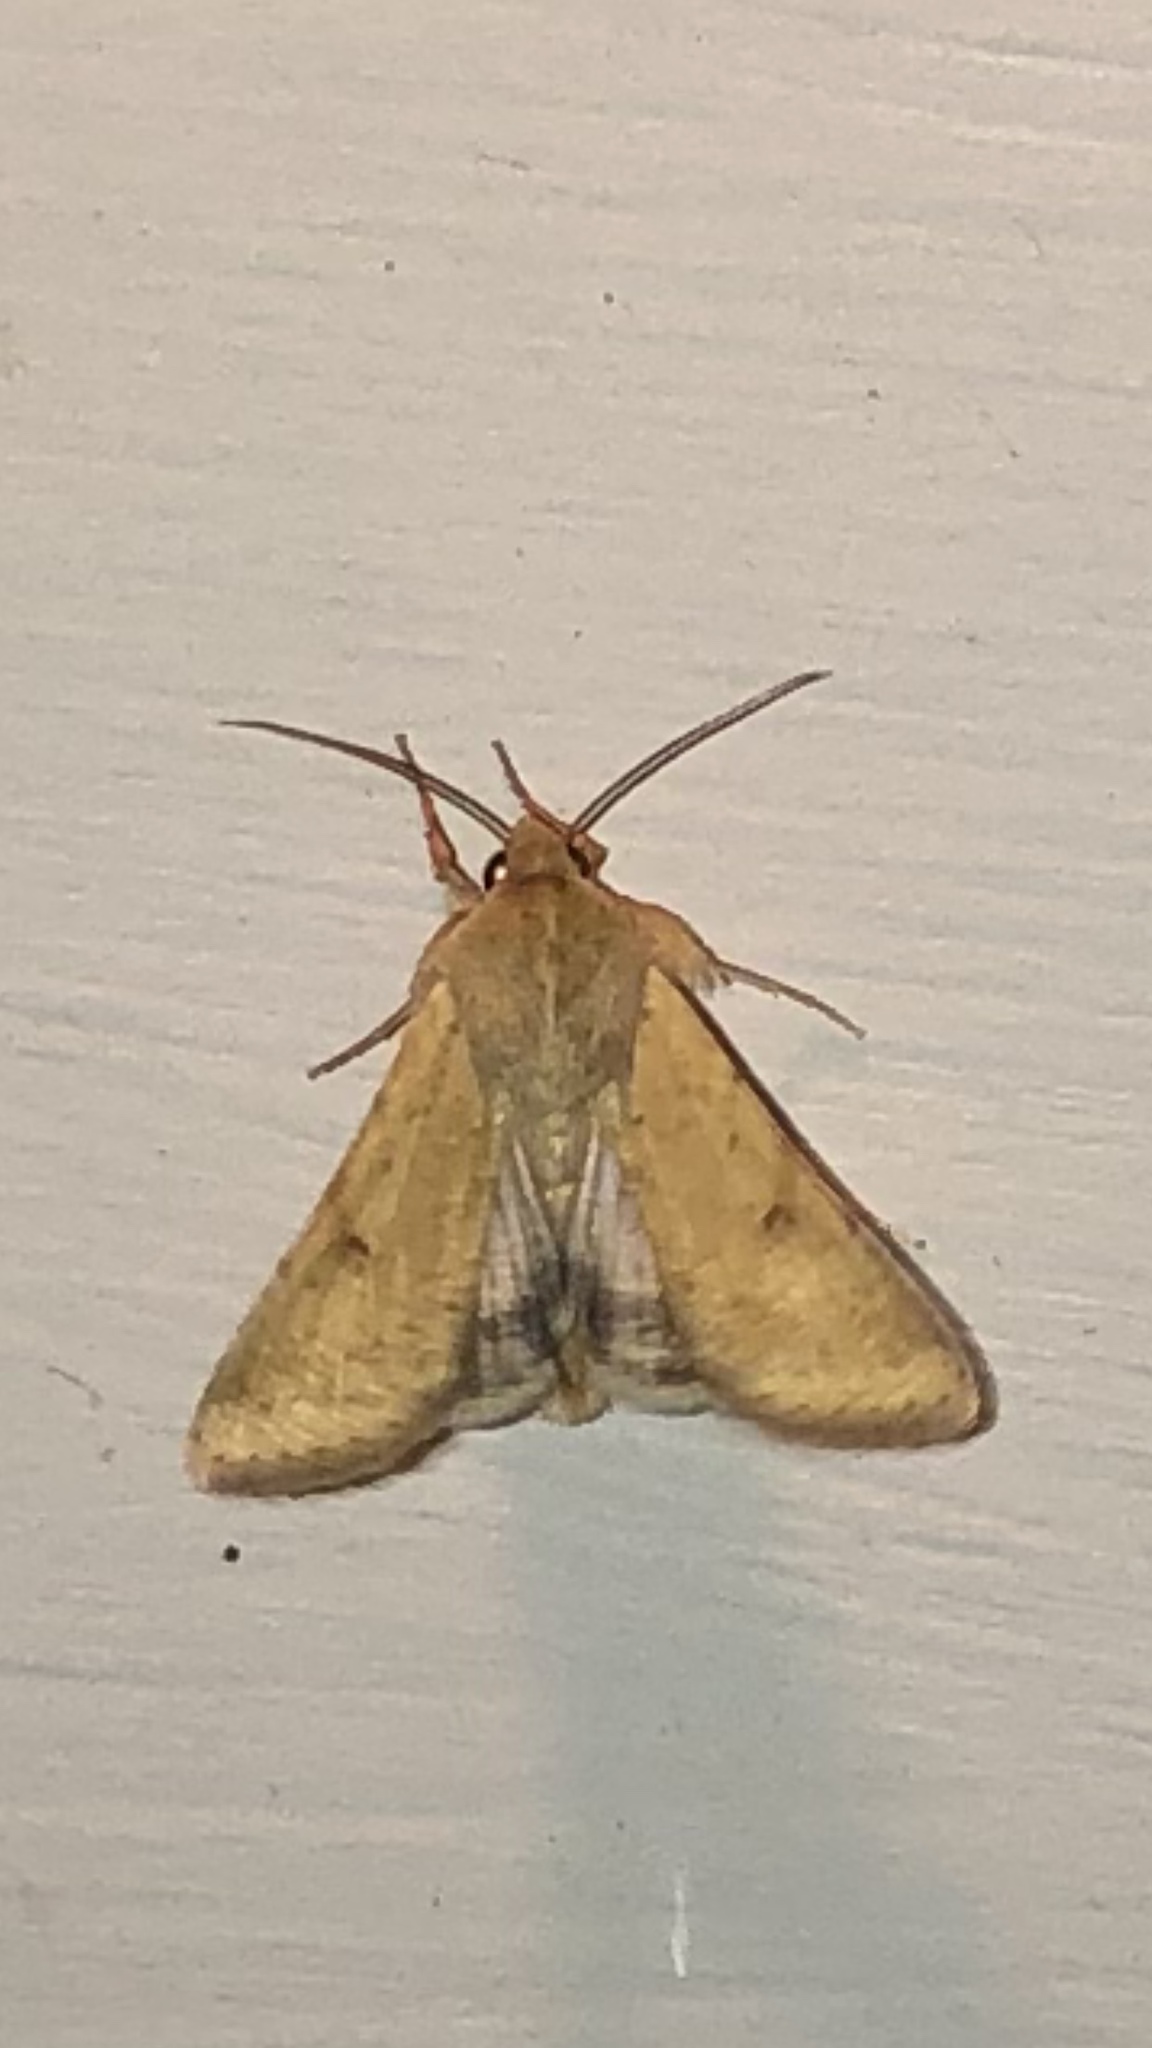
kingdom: Animalia
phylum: Arthropoda
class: Insecta
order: Lepidoptera
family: Noctuidae
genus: Helicoverpa
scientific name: Helicoverpa zea
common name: Bollworm
